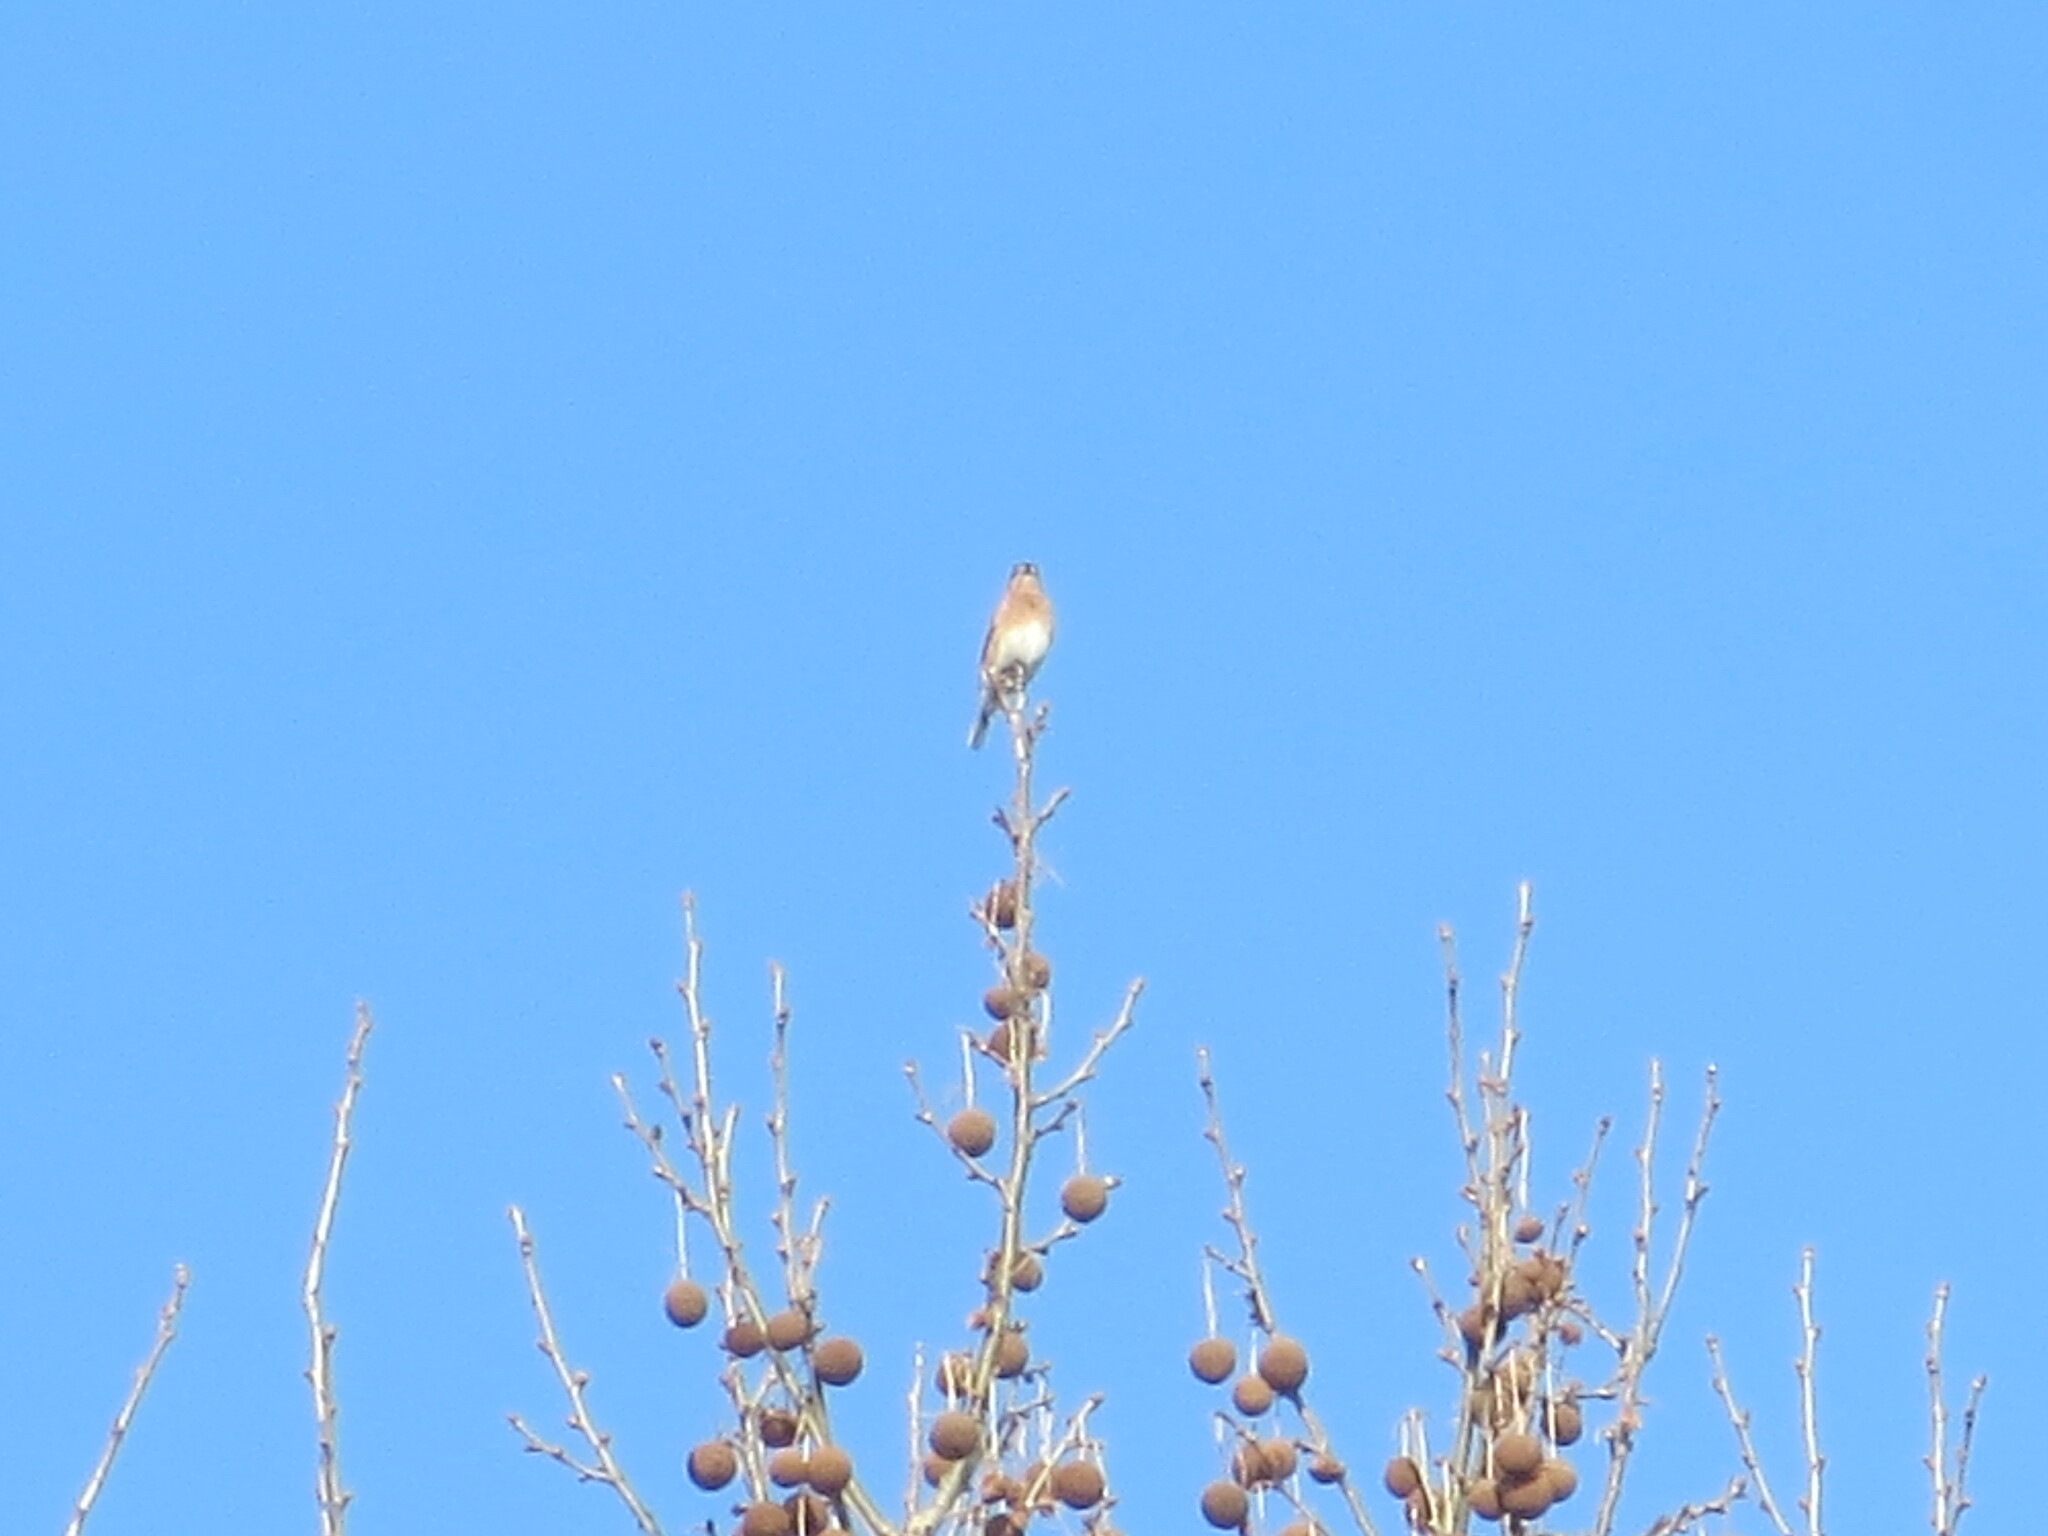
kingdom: Animalia
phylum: Chordata
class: Aves
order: Passeriformes
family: Turdidae
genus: Sialia
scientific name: Sialia sialis
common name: Eastern bluebird
